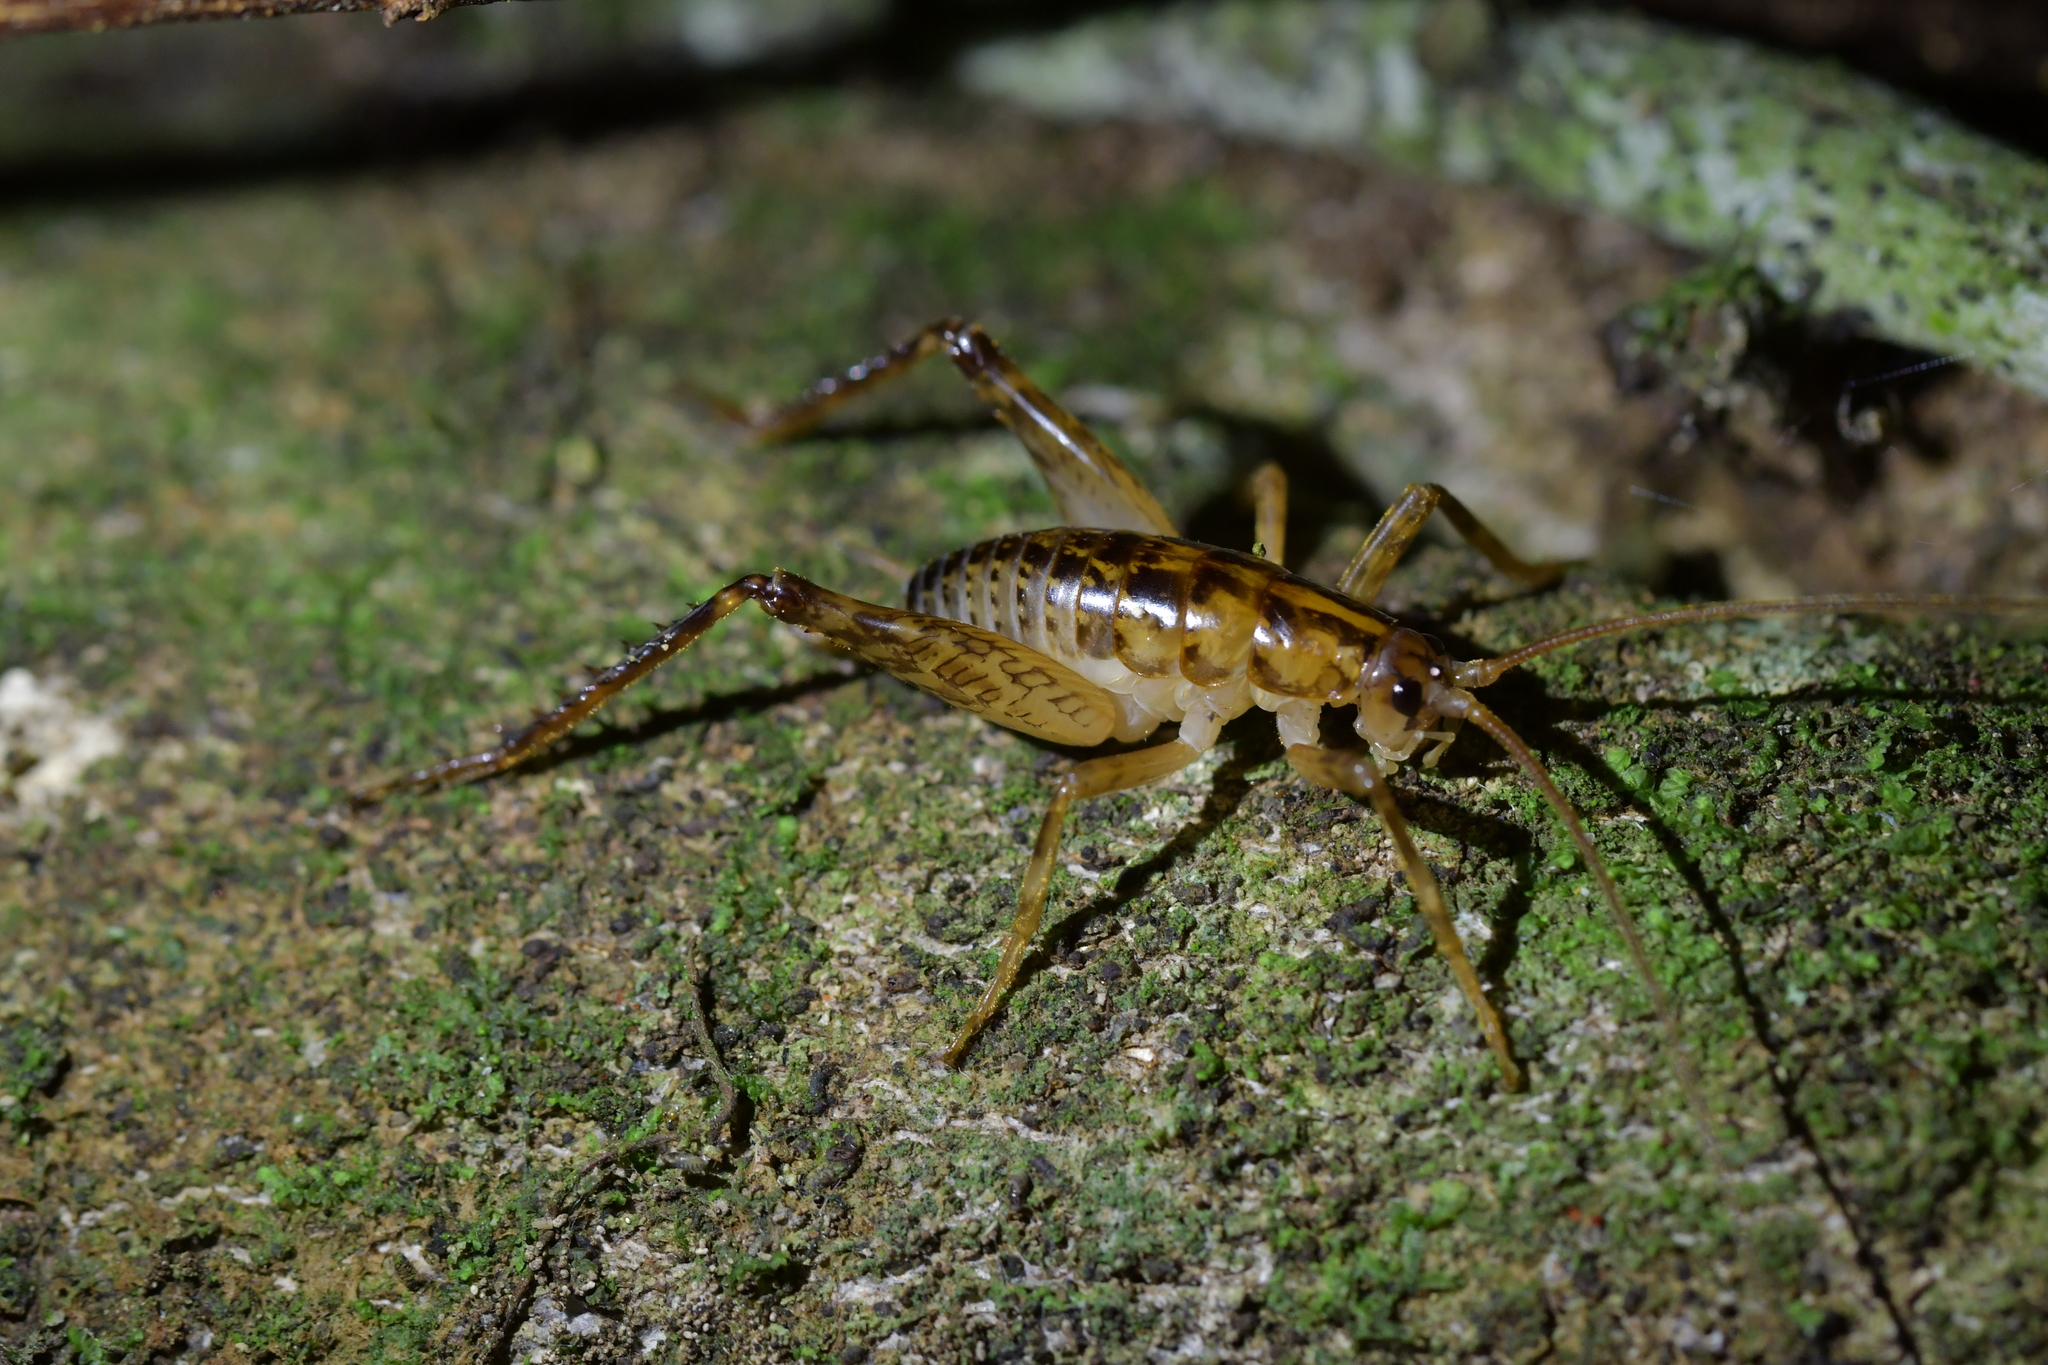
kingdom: Animalia
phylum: Arthropoda
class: Insecta
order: Orthoptera
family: Rhaphidophoridae
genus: Talitropsis
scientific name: Talitropsis sedilloti
